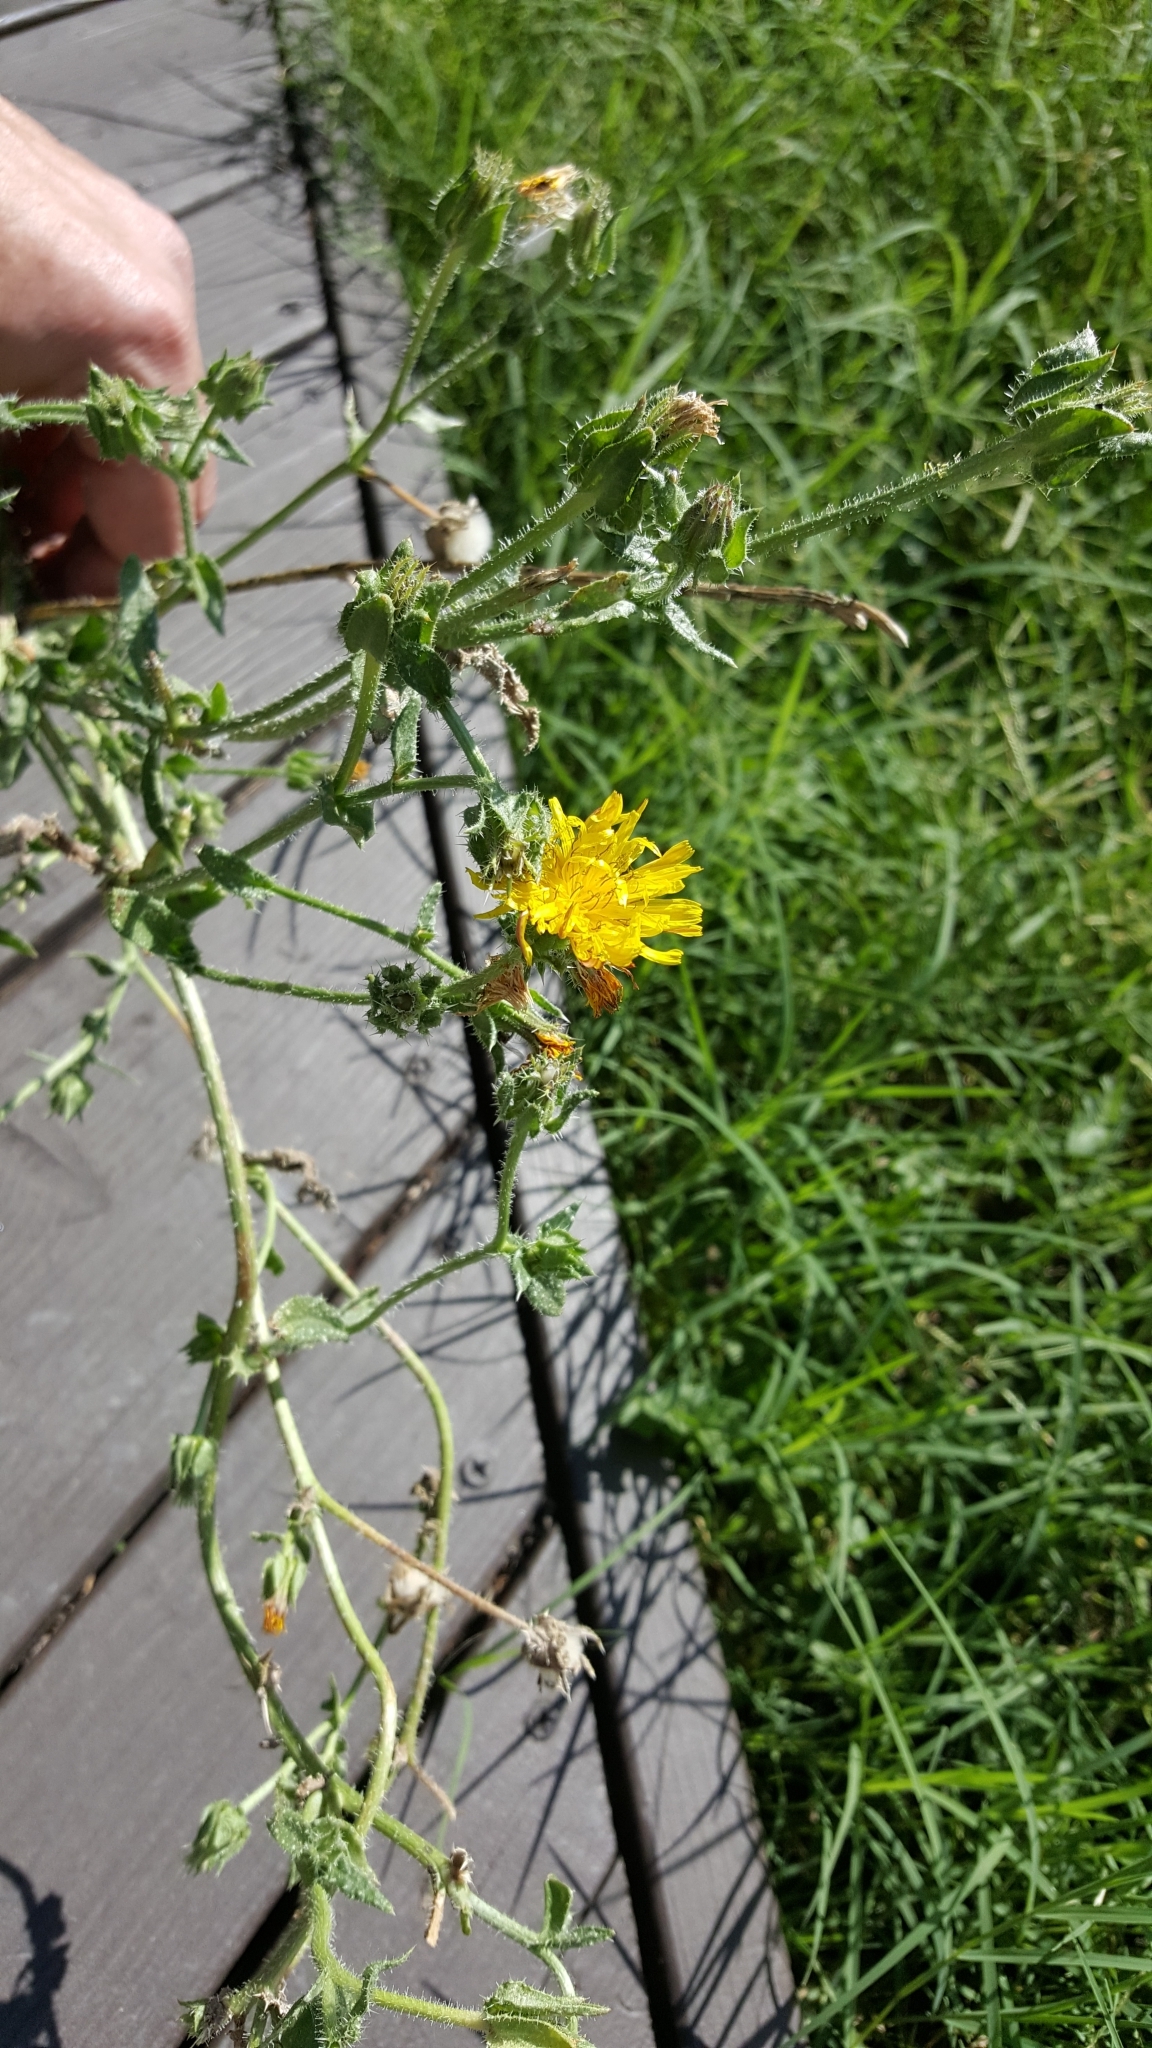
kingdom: Plantae
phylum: Tracheophyta
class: Magnoliopsida
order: Asterales
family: Asteraceae
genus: Helminthotheca
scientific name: Helminthotheca echioides
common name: Ox-tongue
